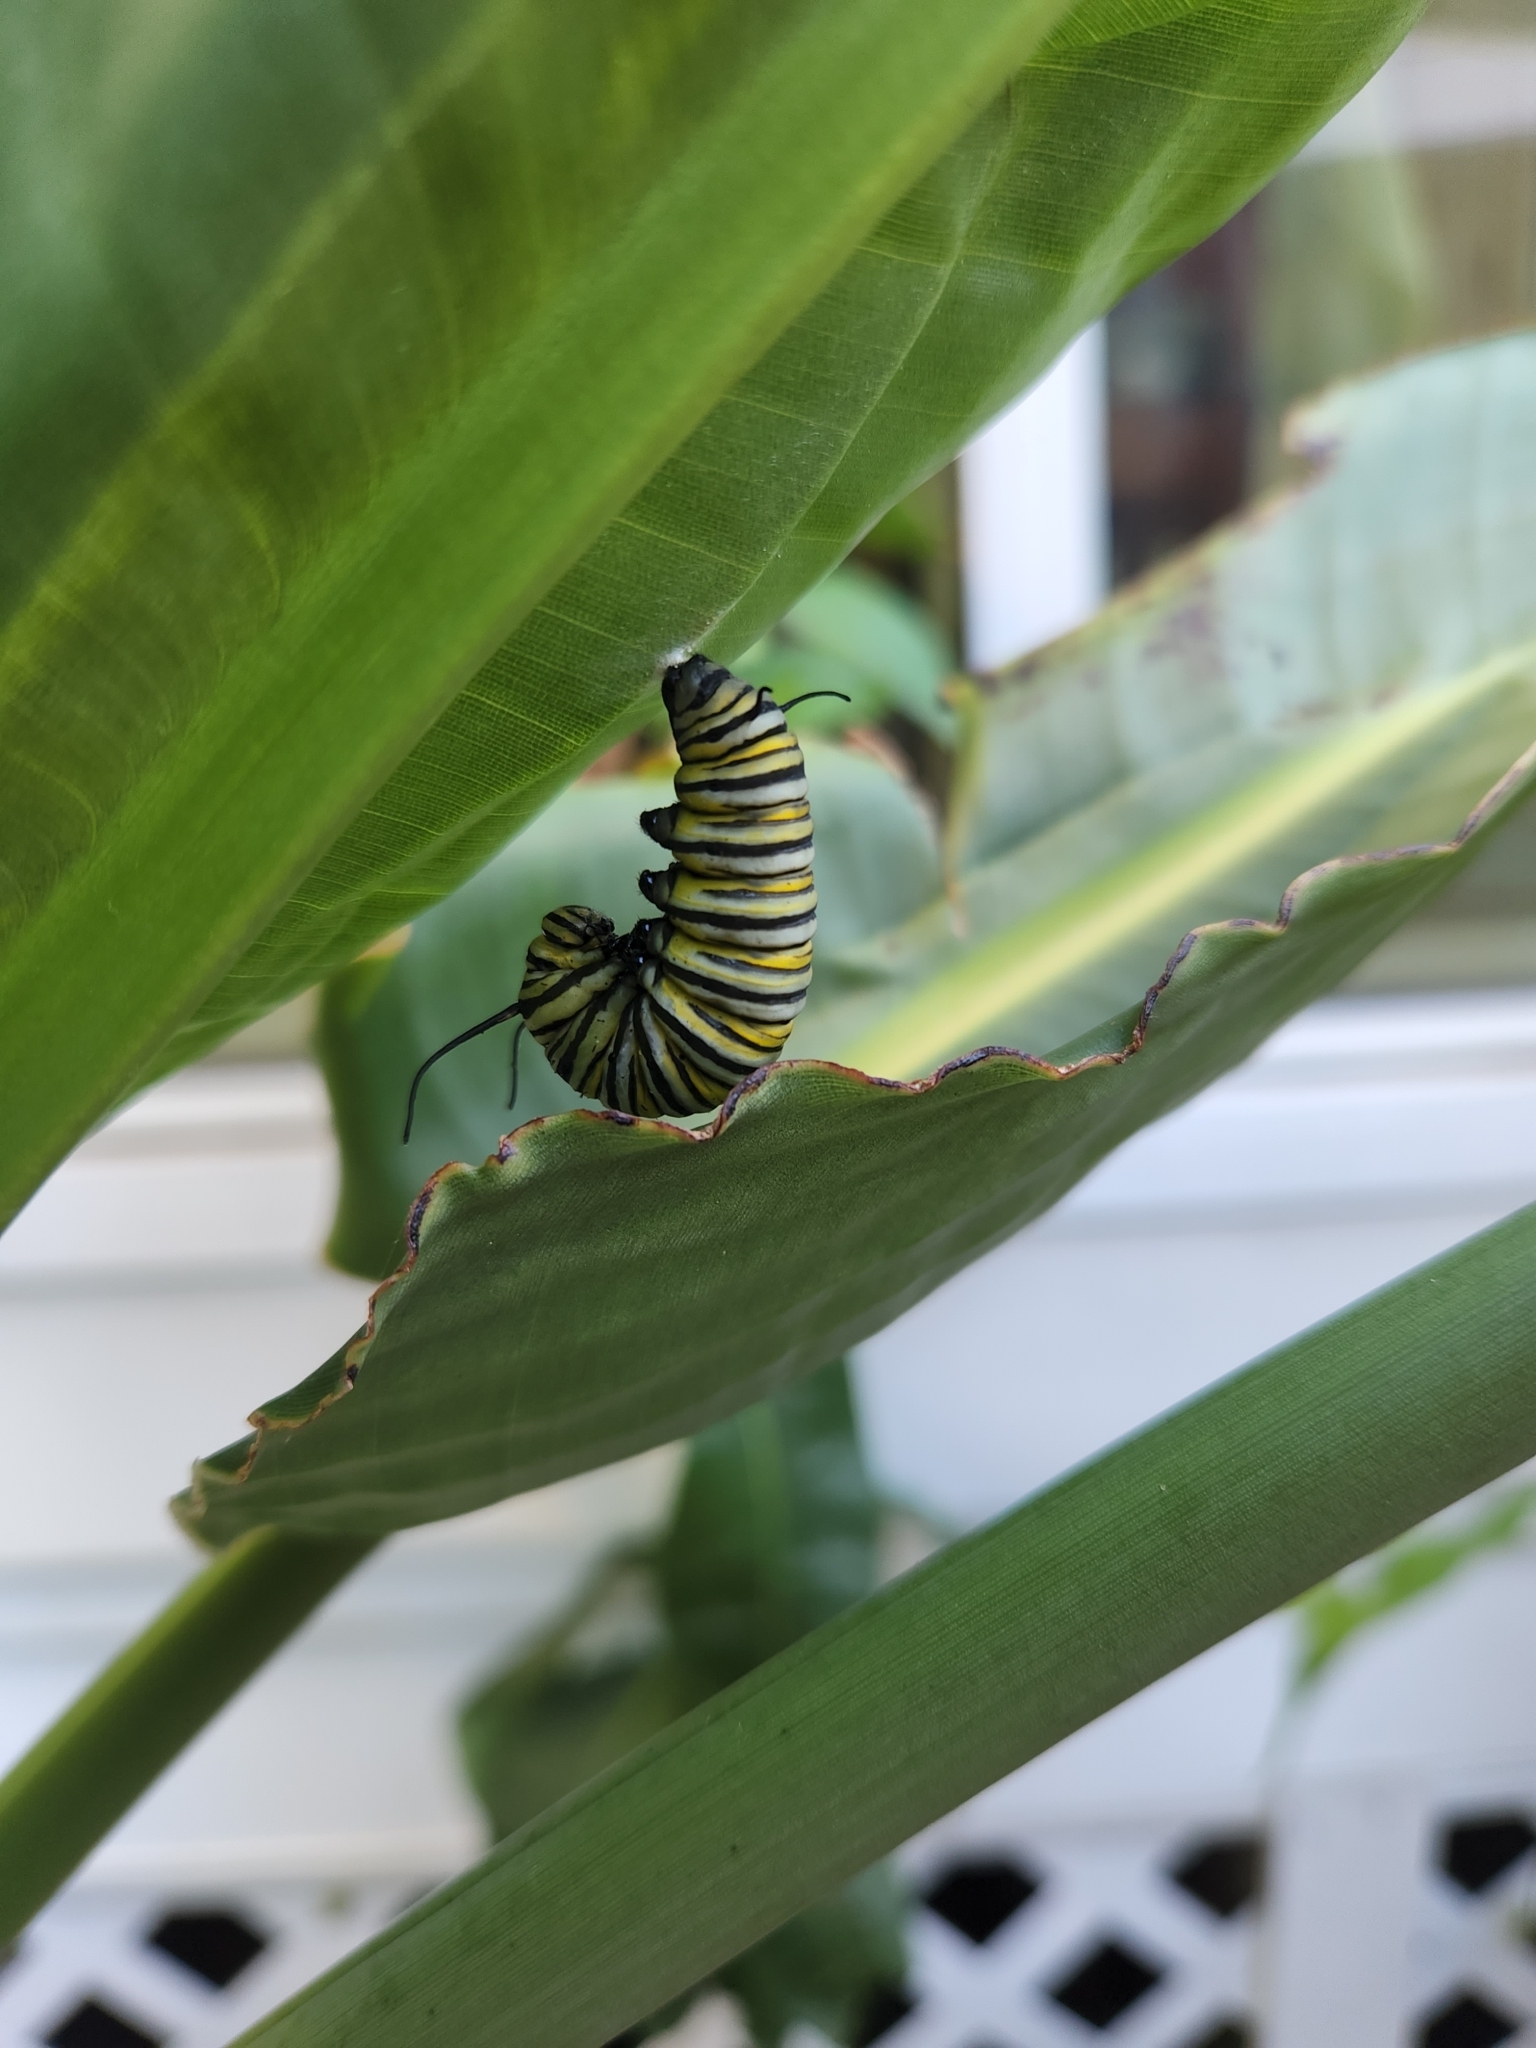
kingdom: Animalia
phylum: Arthropoda
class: Insecta
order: Lepidoptera
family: Nymphalidae
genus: Danaus
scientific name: Danaus plexippus
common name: Monarch
